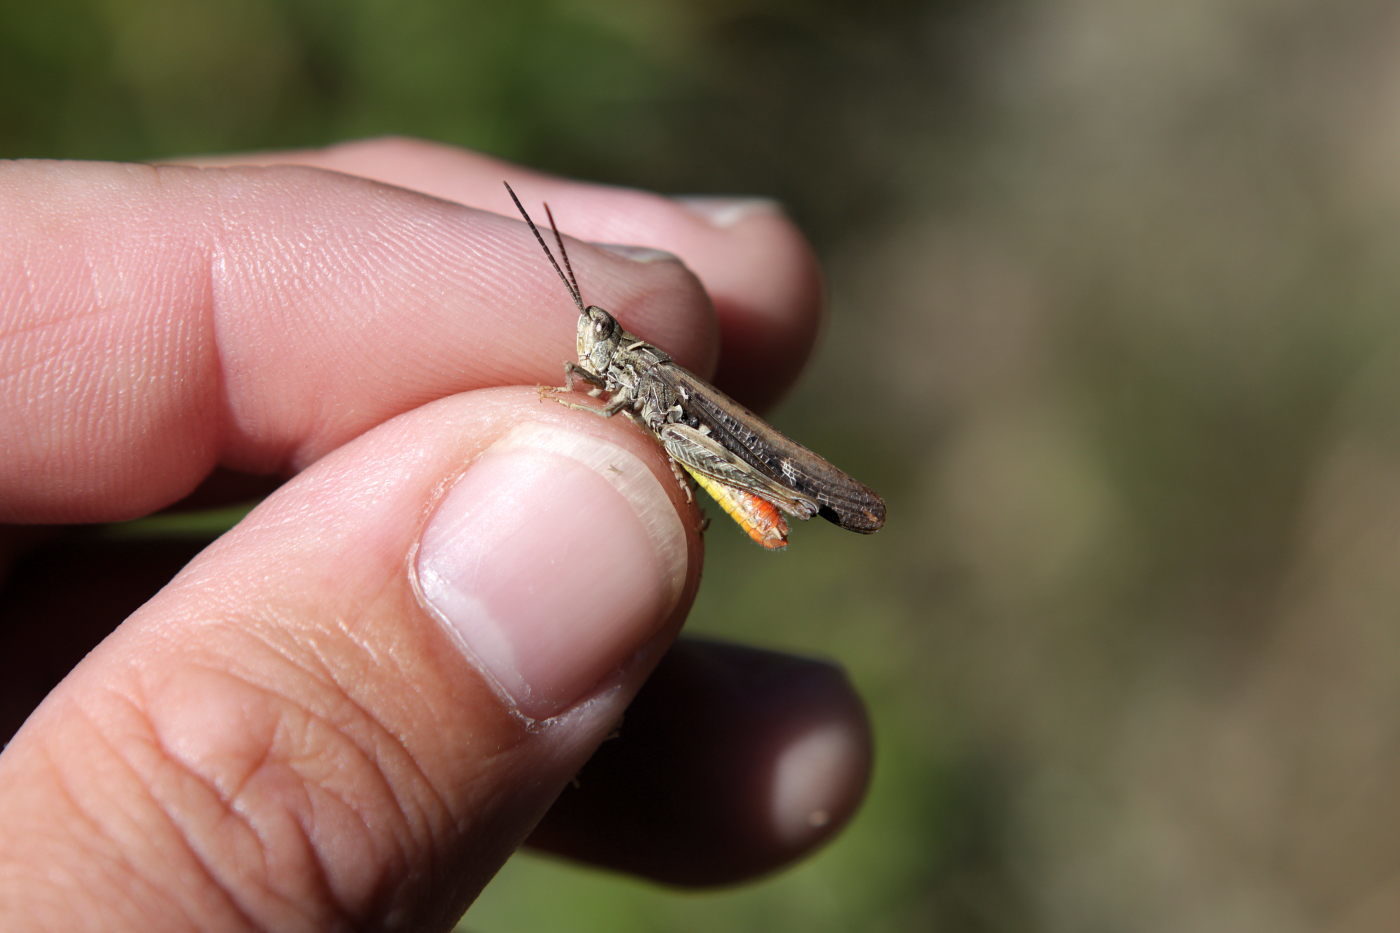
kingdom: Animalia
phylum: Arthropoda
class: Insecta
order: Orthoptera
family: Acrididae
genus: Chorthippus
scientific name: Chorthippus brunneus
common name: Field grasshopper
